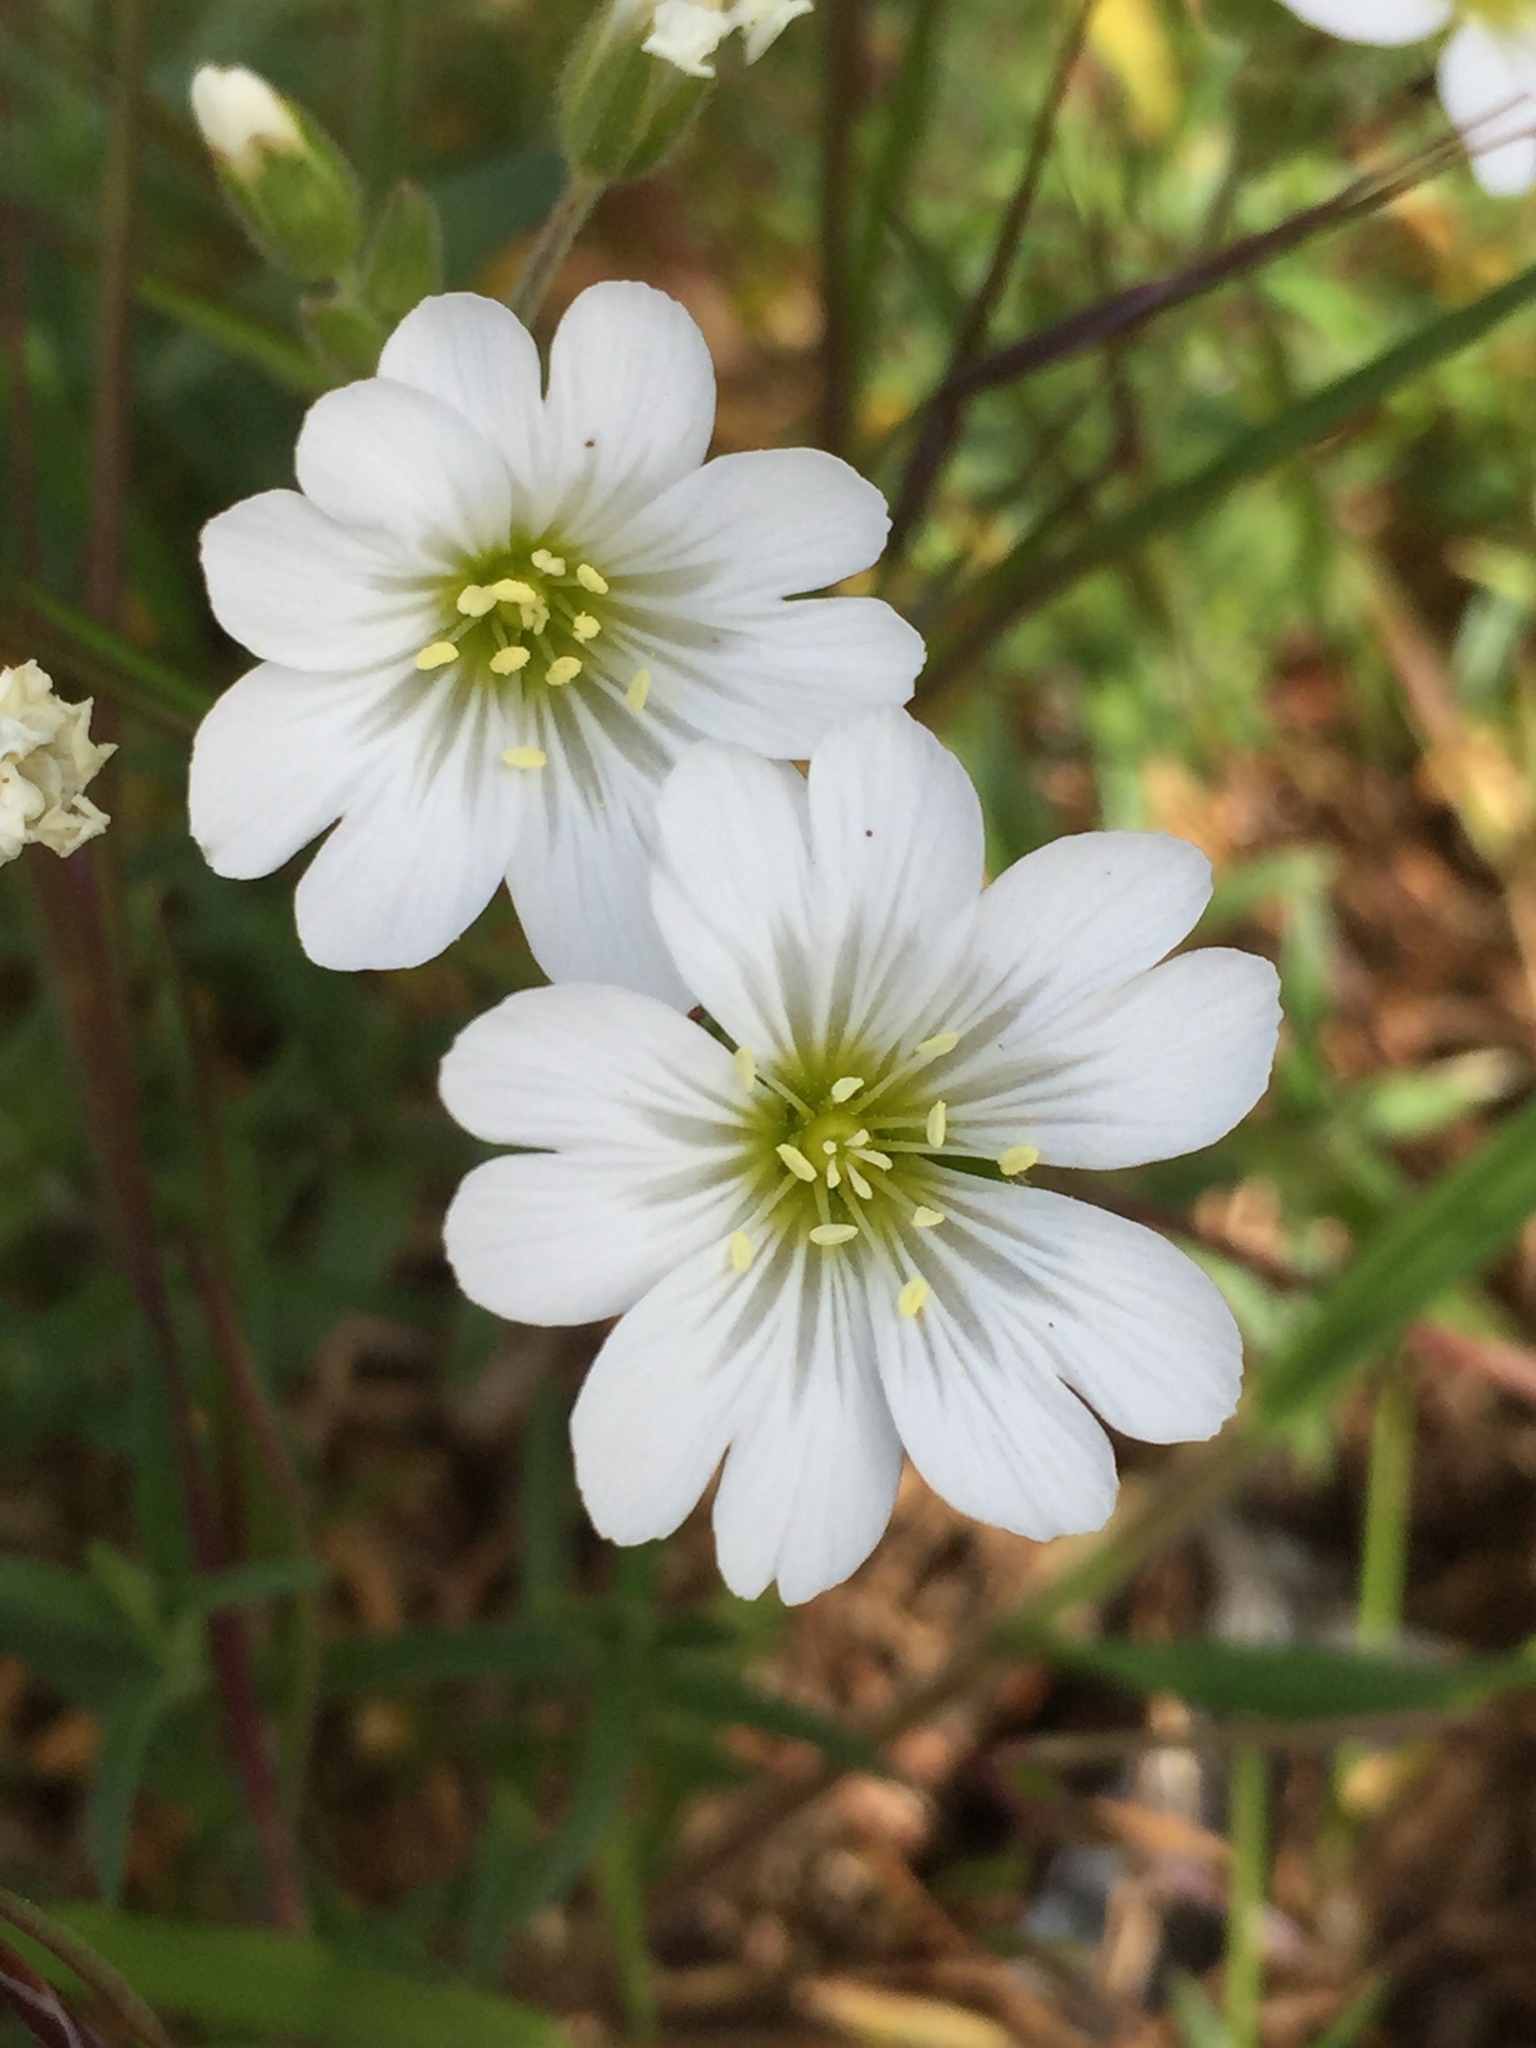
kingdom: Plantae
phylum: Tracheophyta
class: Magnoliopsida
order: Caryophyllales
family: Caryophyllaceae
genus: Cerastium
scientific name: Cerastium arvense
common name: Field mouse-ear
